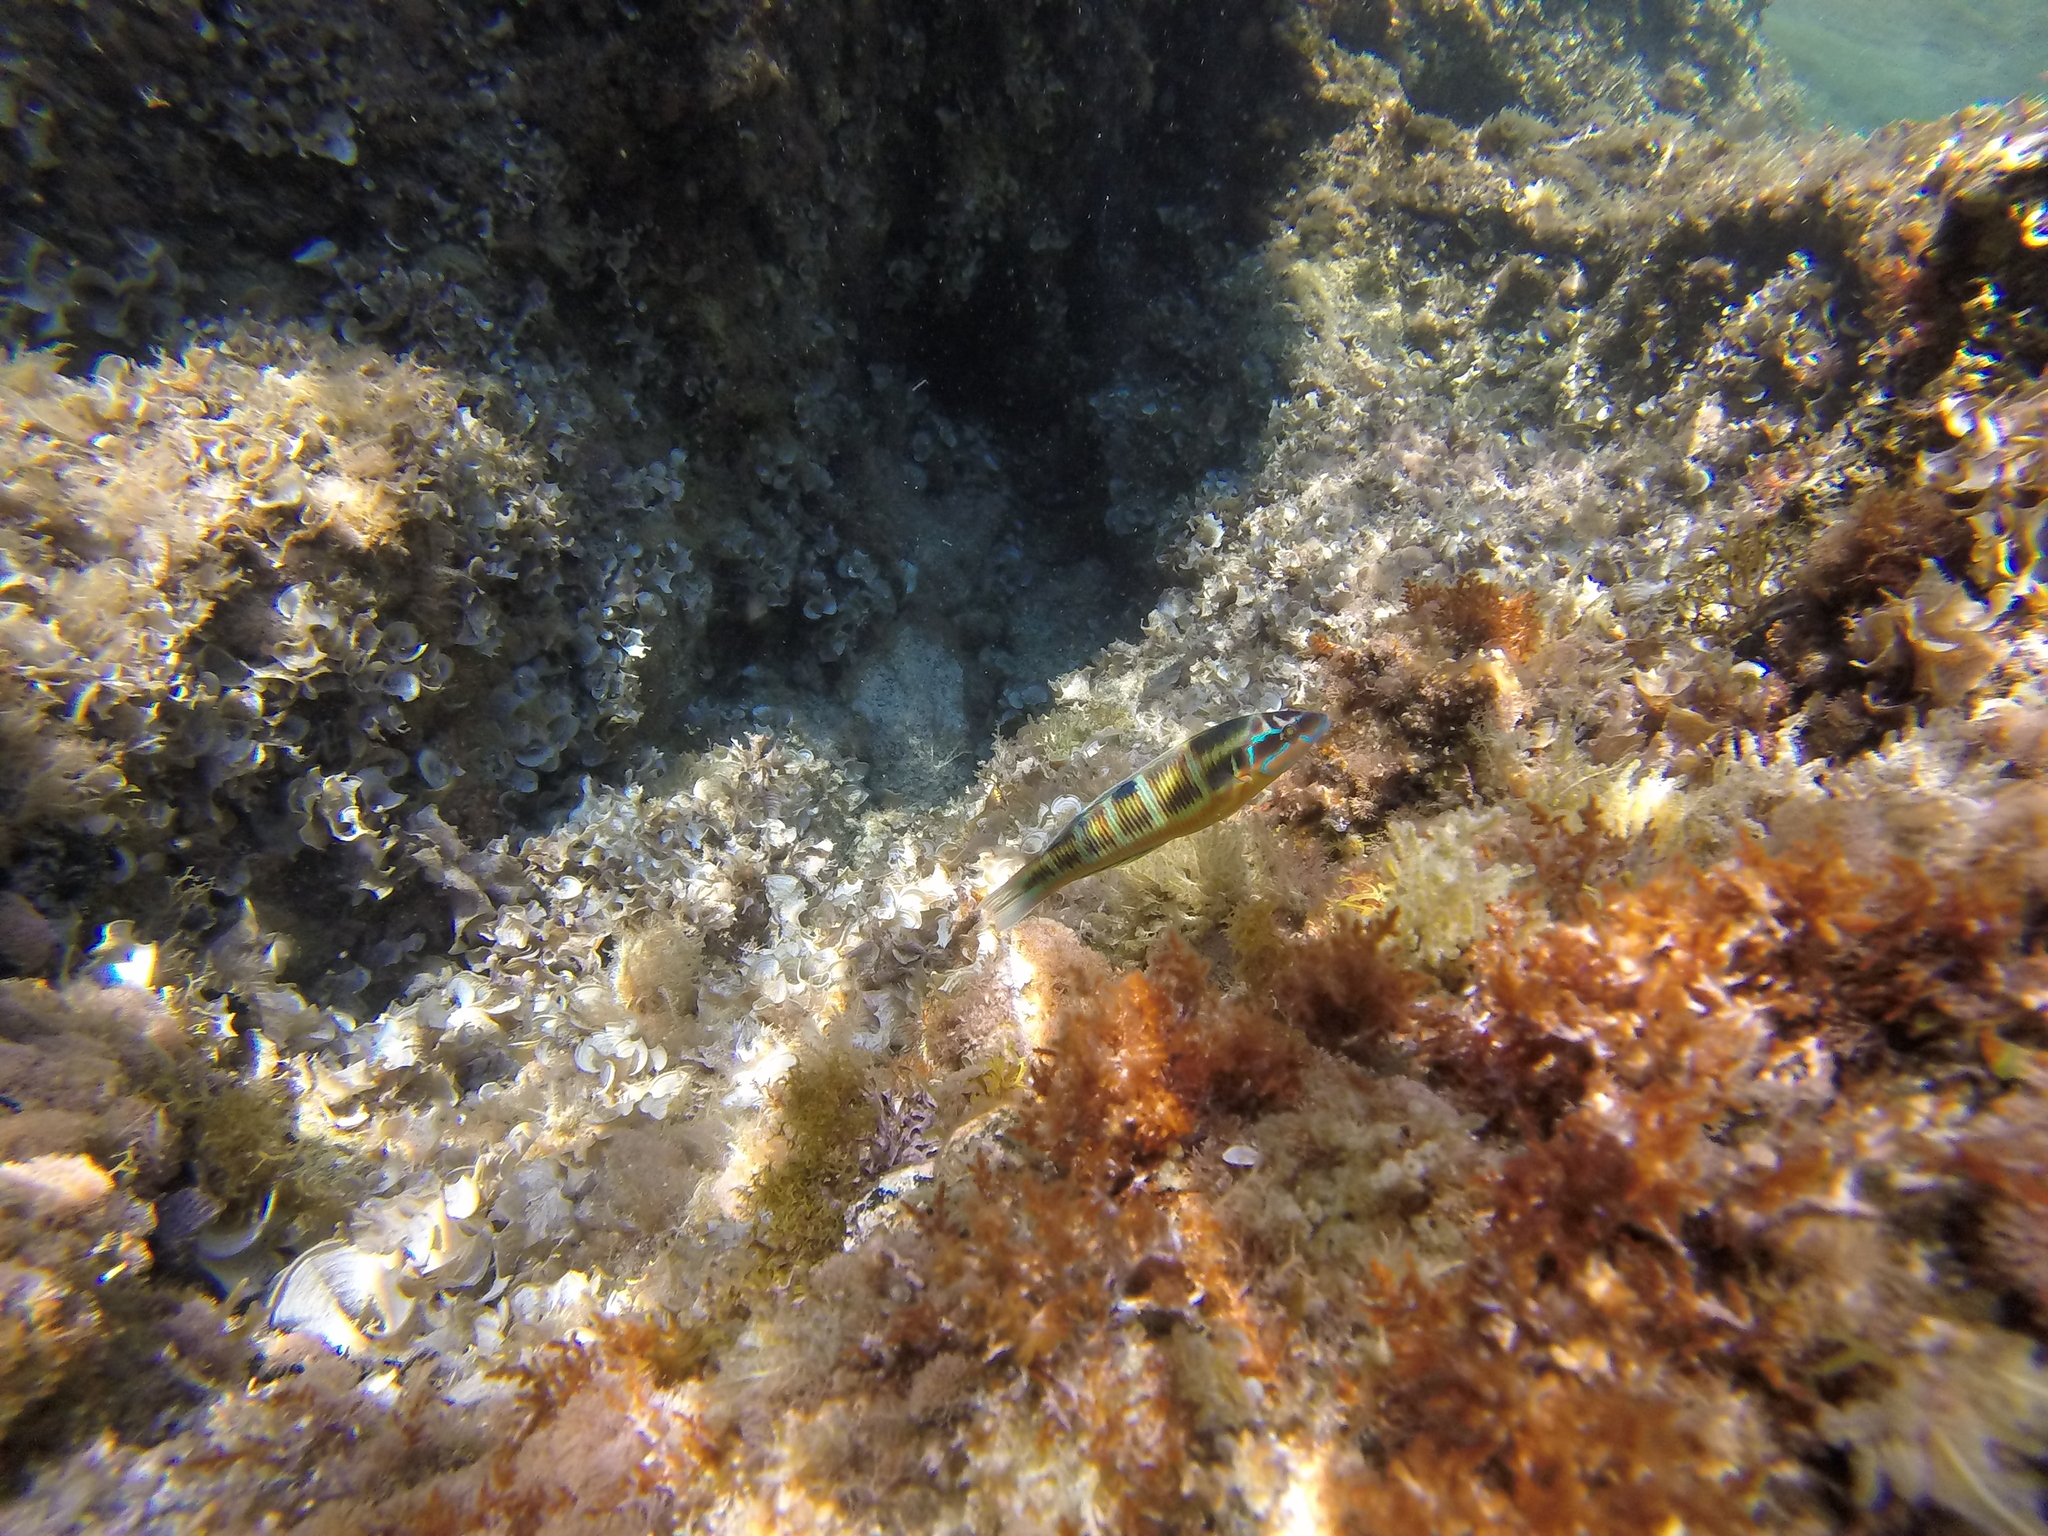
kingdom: Animalia
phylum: Chordata
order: Perciformes
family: Labridae
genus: Thalassoma
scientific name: Thalassoma pavo
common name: Ornate wrasse
